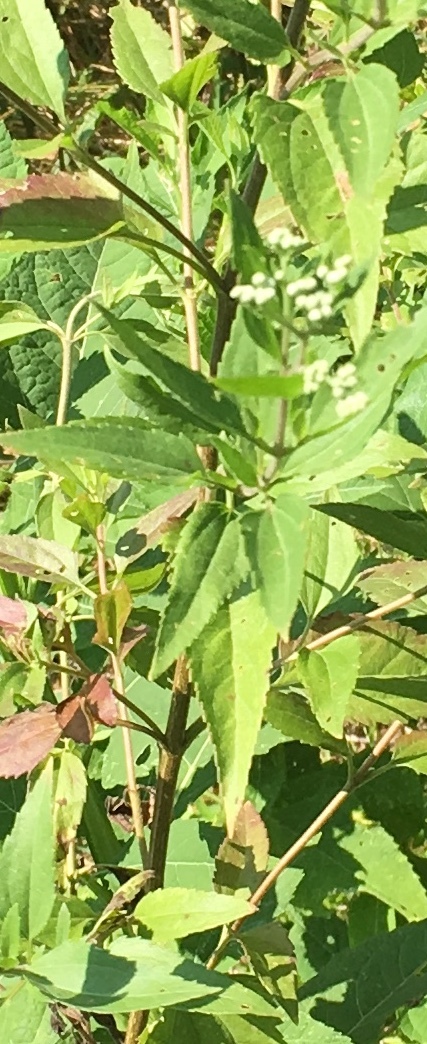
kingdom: Plantae
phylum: Tracheophyta
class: Magnoliopsida
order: Asterales
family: Asteraceae
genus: Eupatorium
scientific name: Eupatorium serotinum
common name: Late boneset
